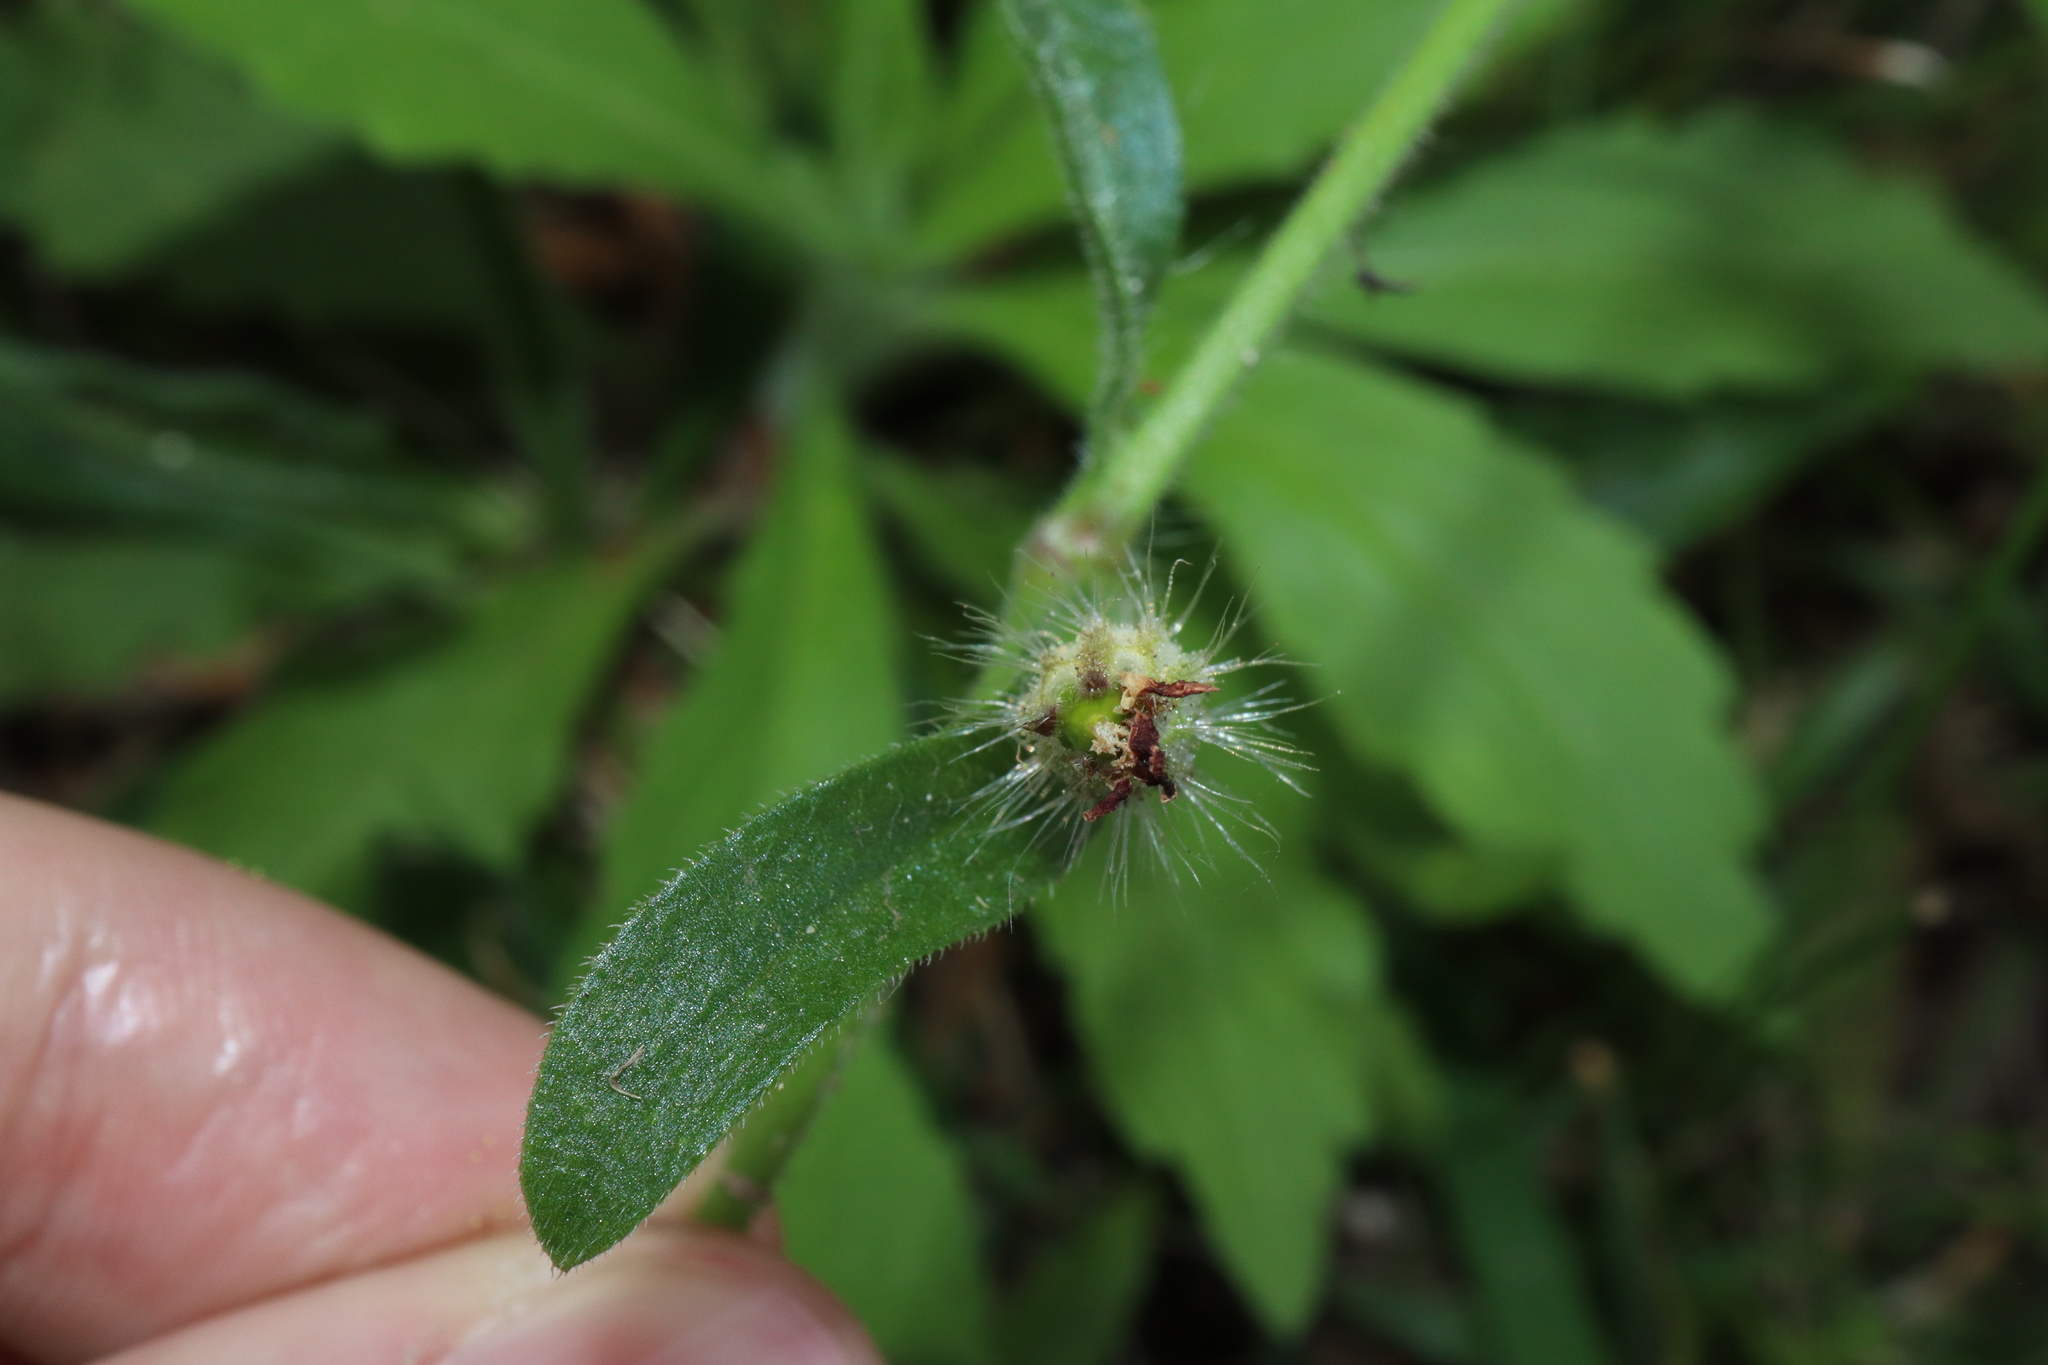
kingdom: Plantae
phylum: Tracheophyta
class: Magnoliopsida
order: Caryophyllales
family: Caryophyllaceae
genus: Silene
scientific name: Silene gallica
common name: Small-flowered catchfly
